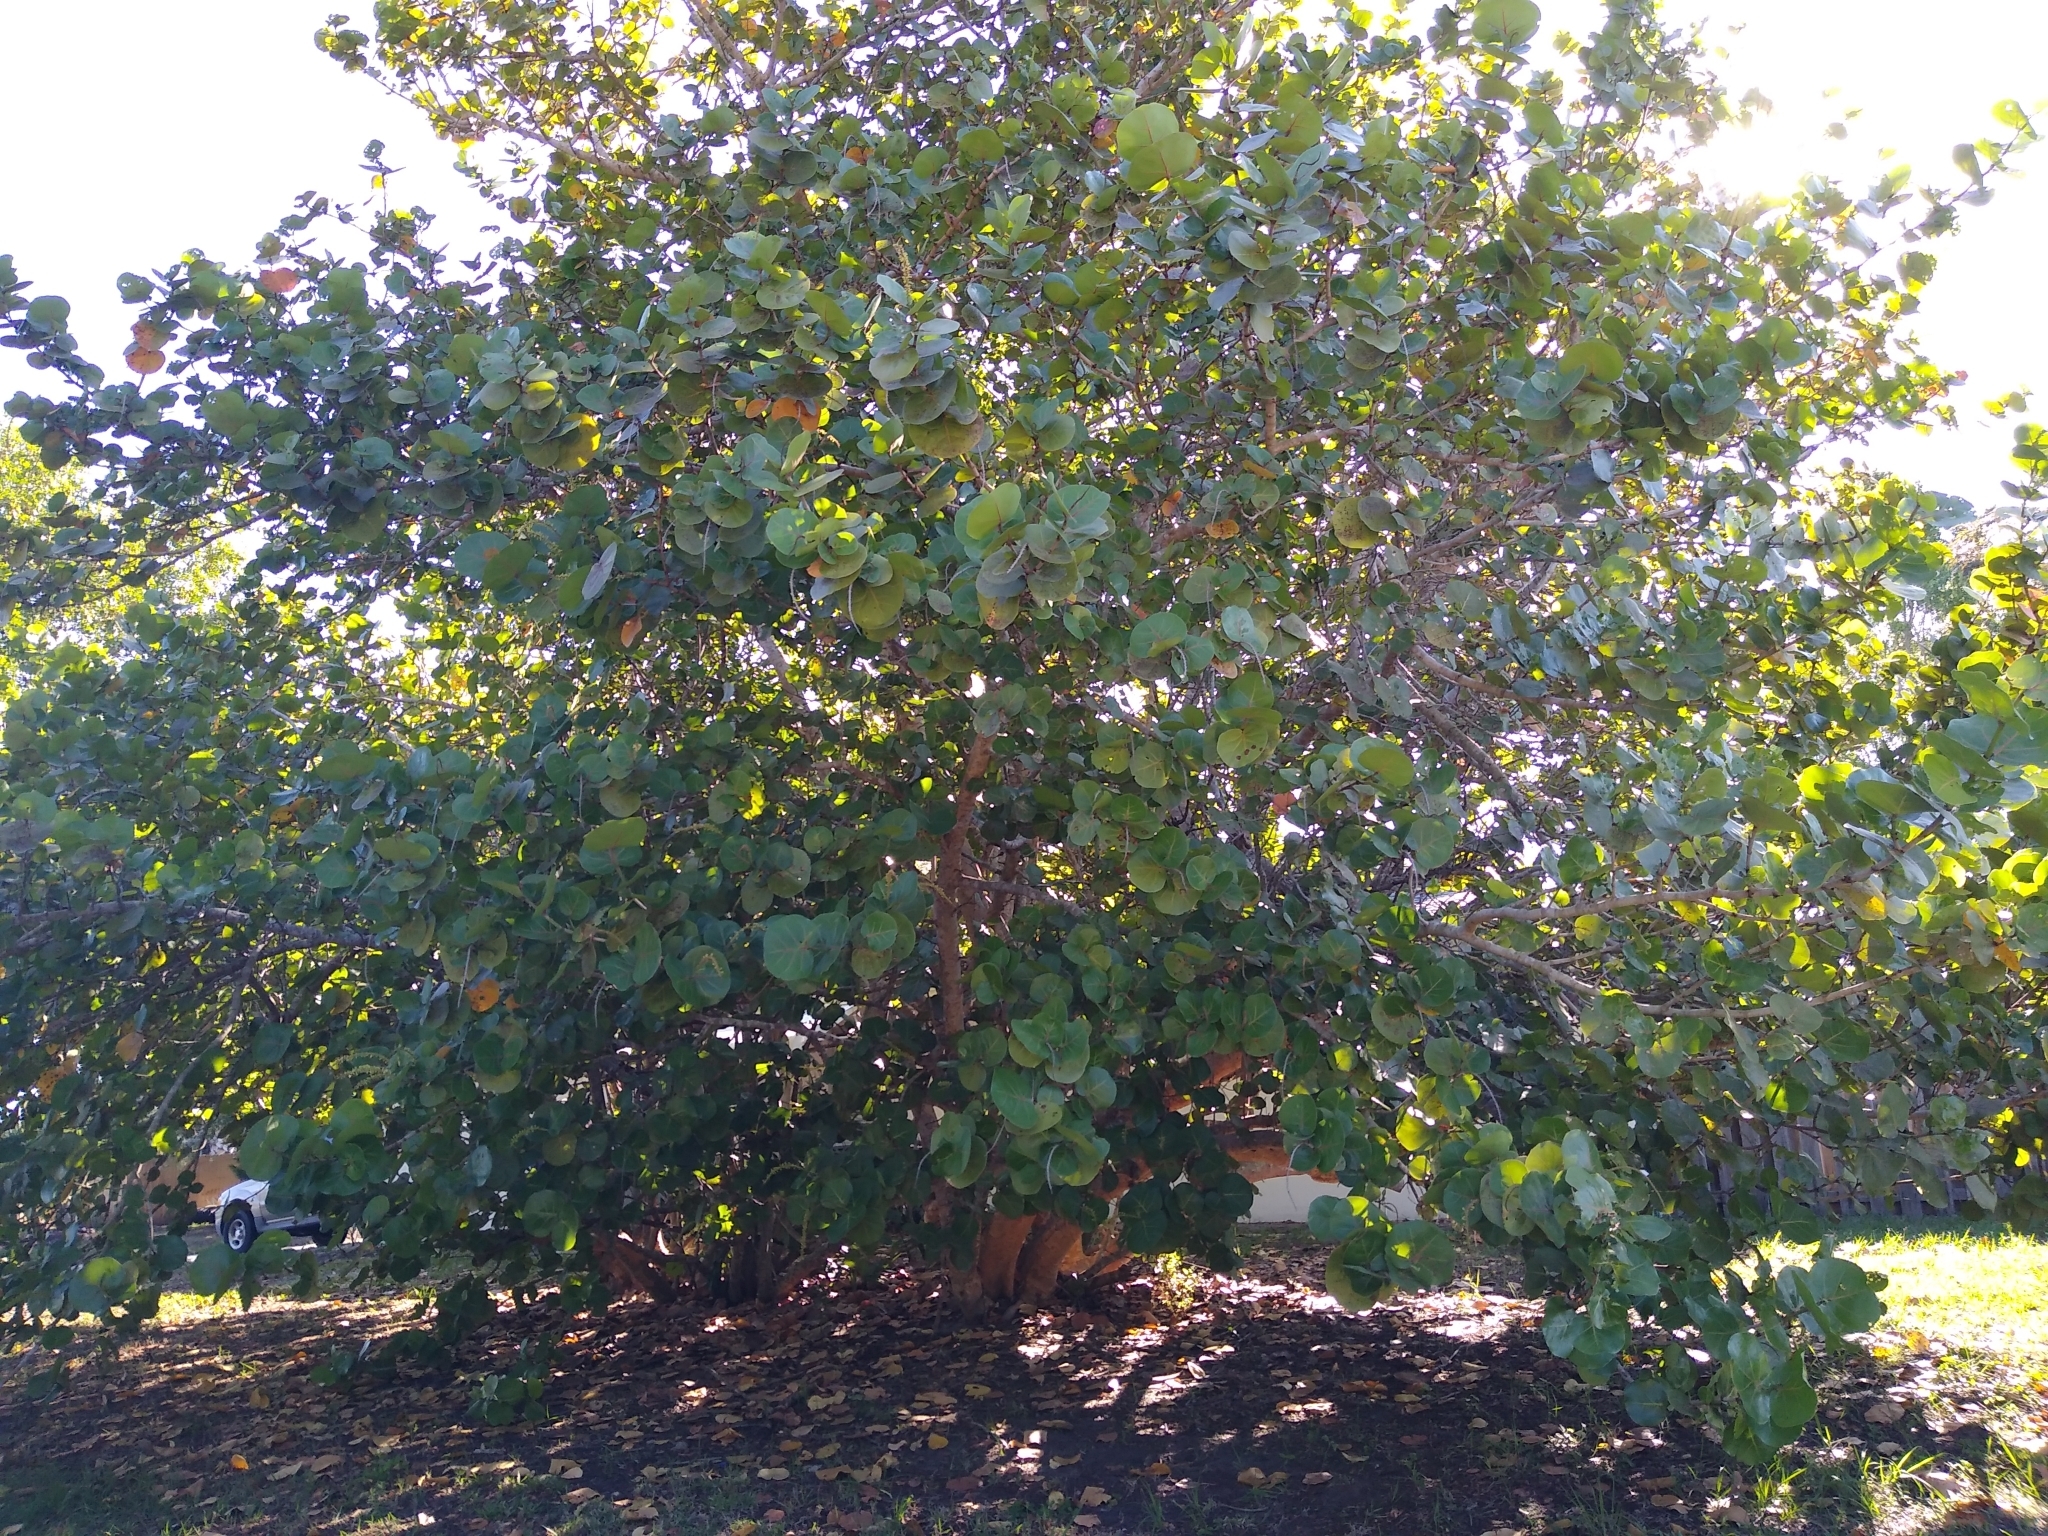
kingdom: Plantae
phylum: Tracheophyta
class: Magnoliopsida
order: Caryophyllales
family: Polygonaceae
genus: Coccoloba
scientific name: Coccoloba uvifera
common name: Seagrape
